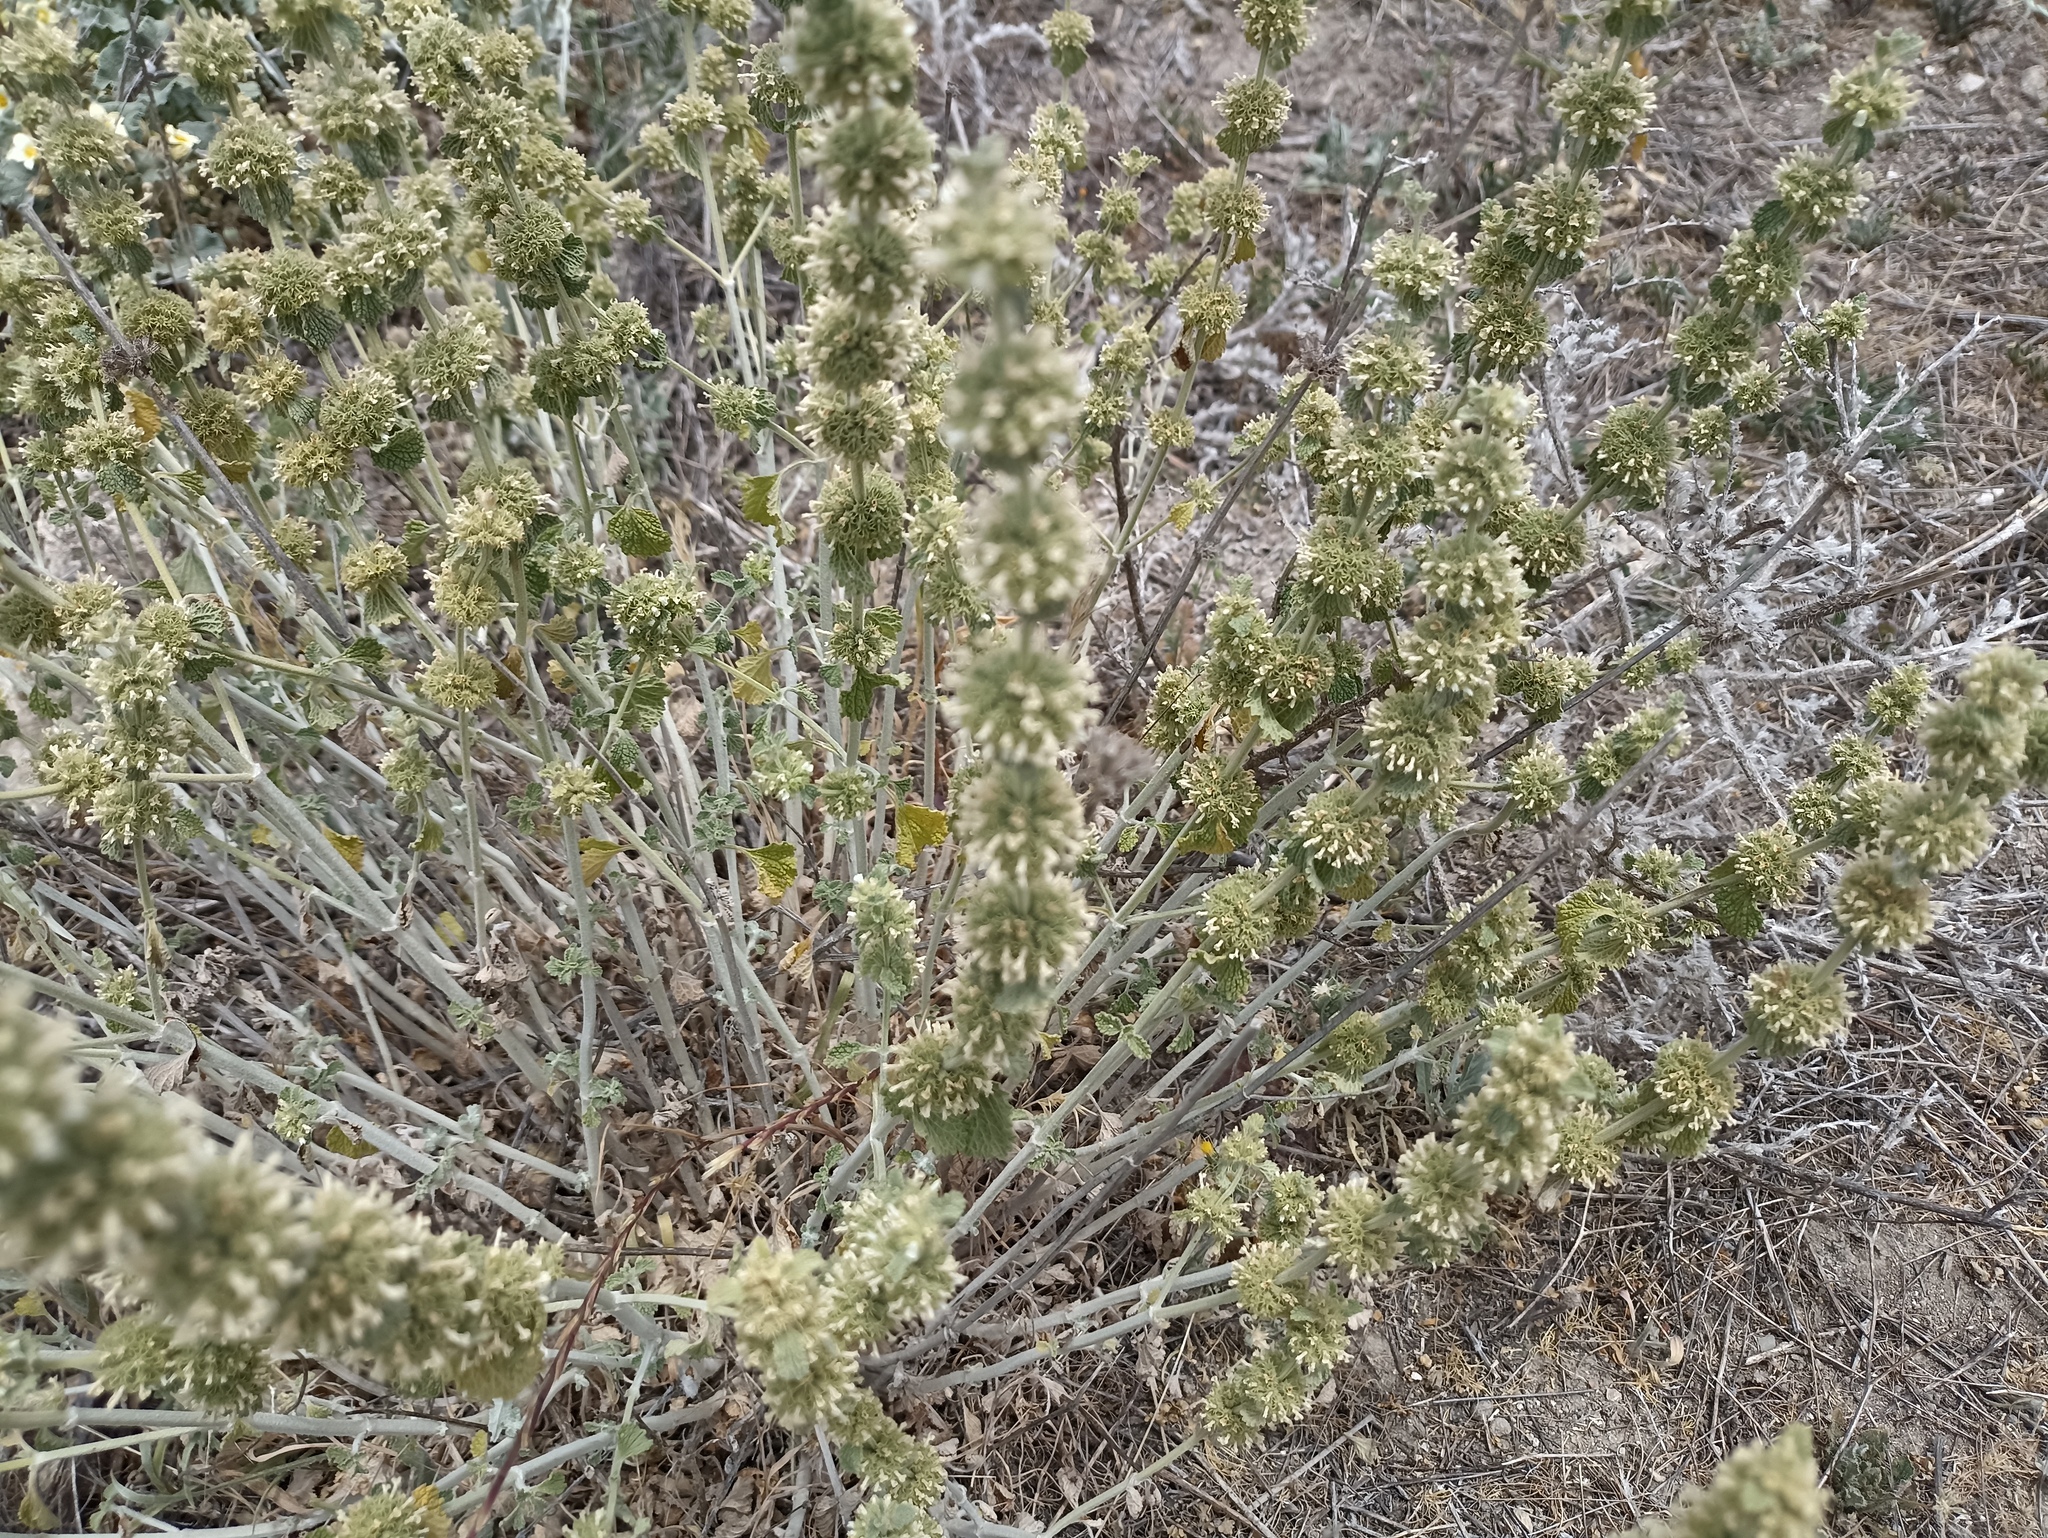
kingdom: Plantae
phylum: Tracheophyta
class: Magnoliopsida
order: Lamiales
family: Lamiaceae
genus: Marrubium
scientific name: Marrubium vulgare
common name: Horehound
